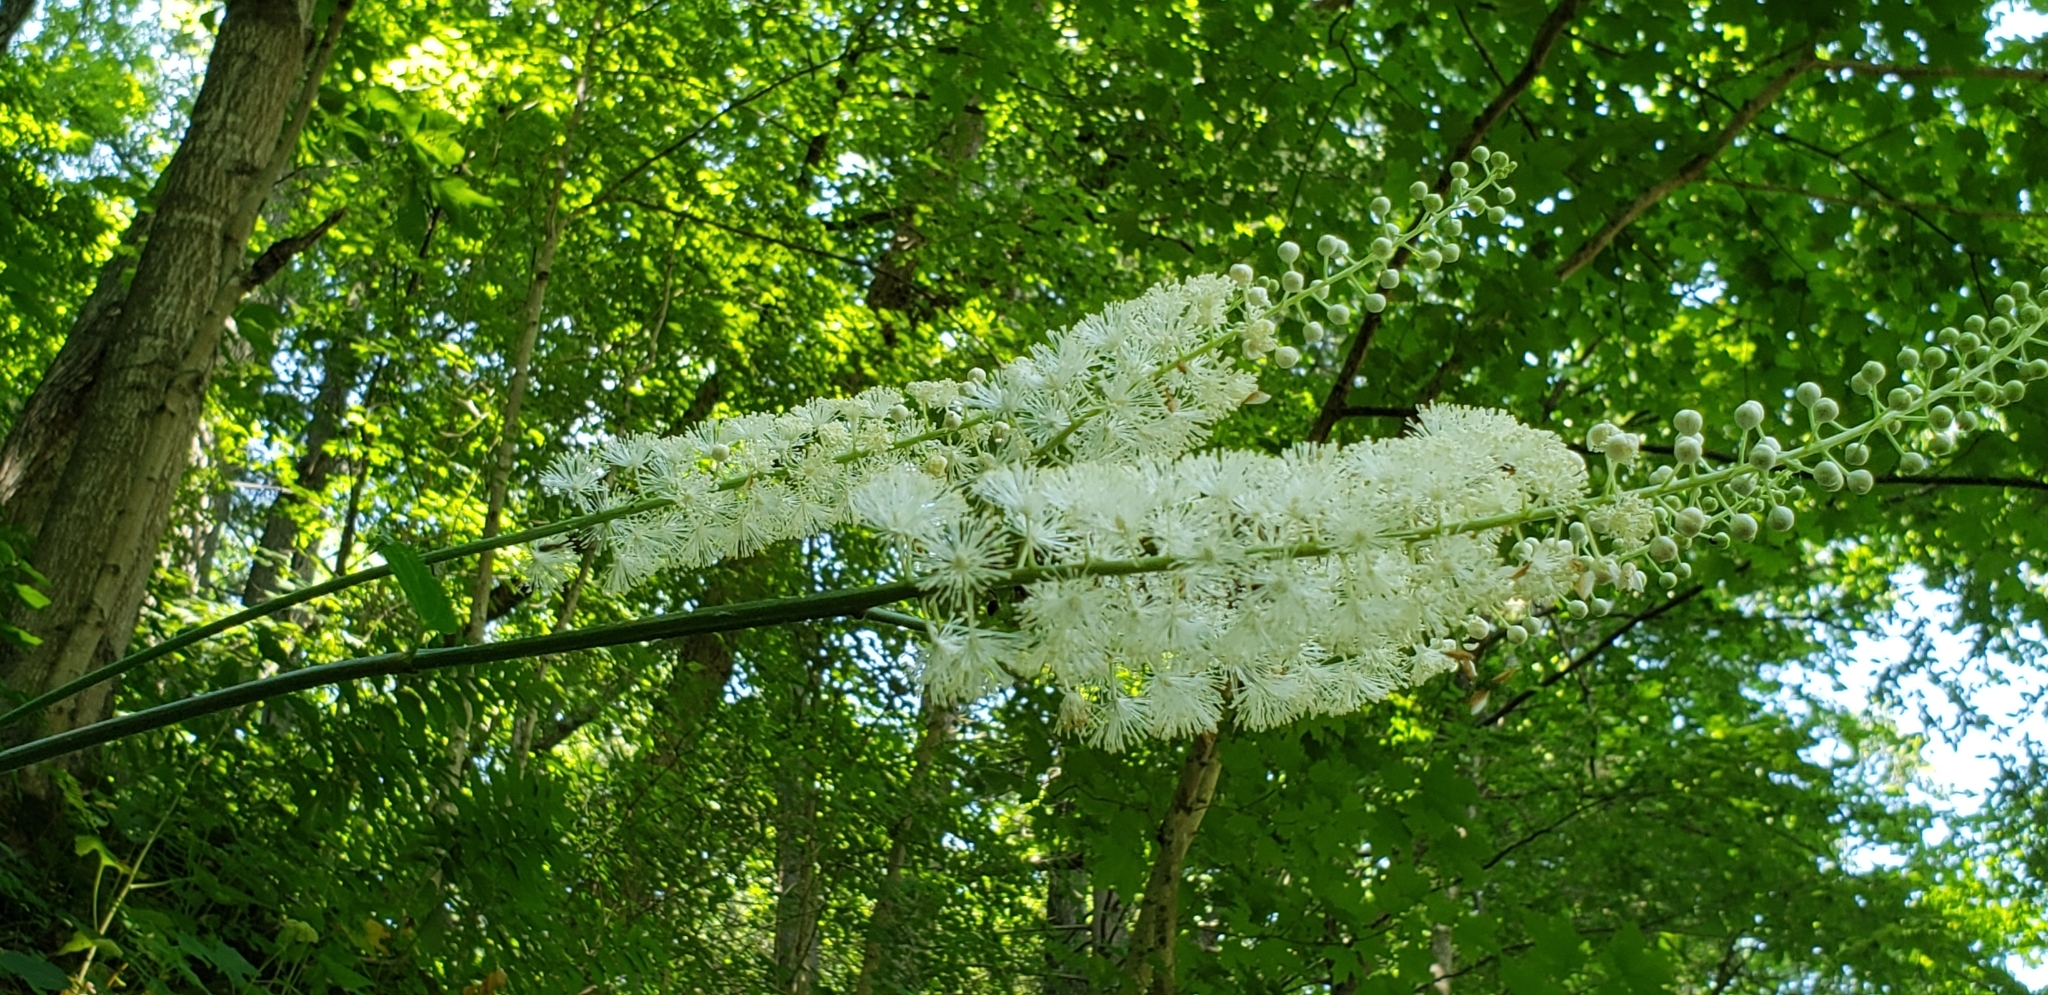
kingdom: Plantae
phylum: Tracheophyta
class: Magnoliopsida
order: Ranunculales
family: Ranunculaceae
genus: Actaea
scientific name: Actaea racemosa
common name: Black cohosh
